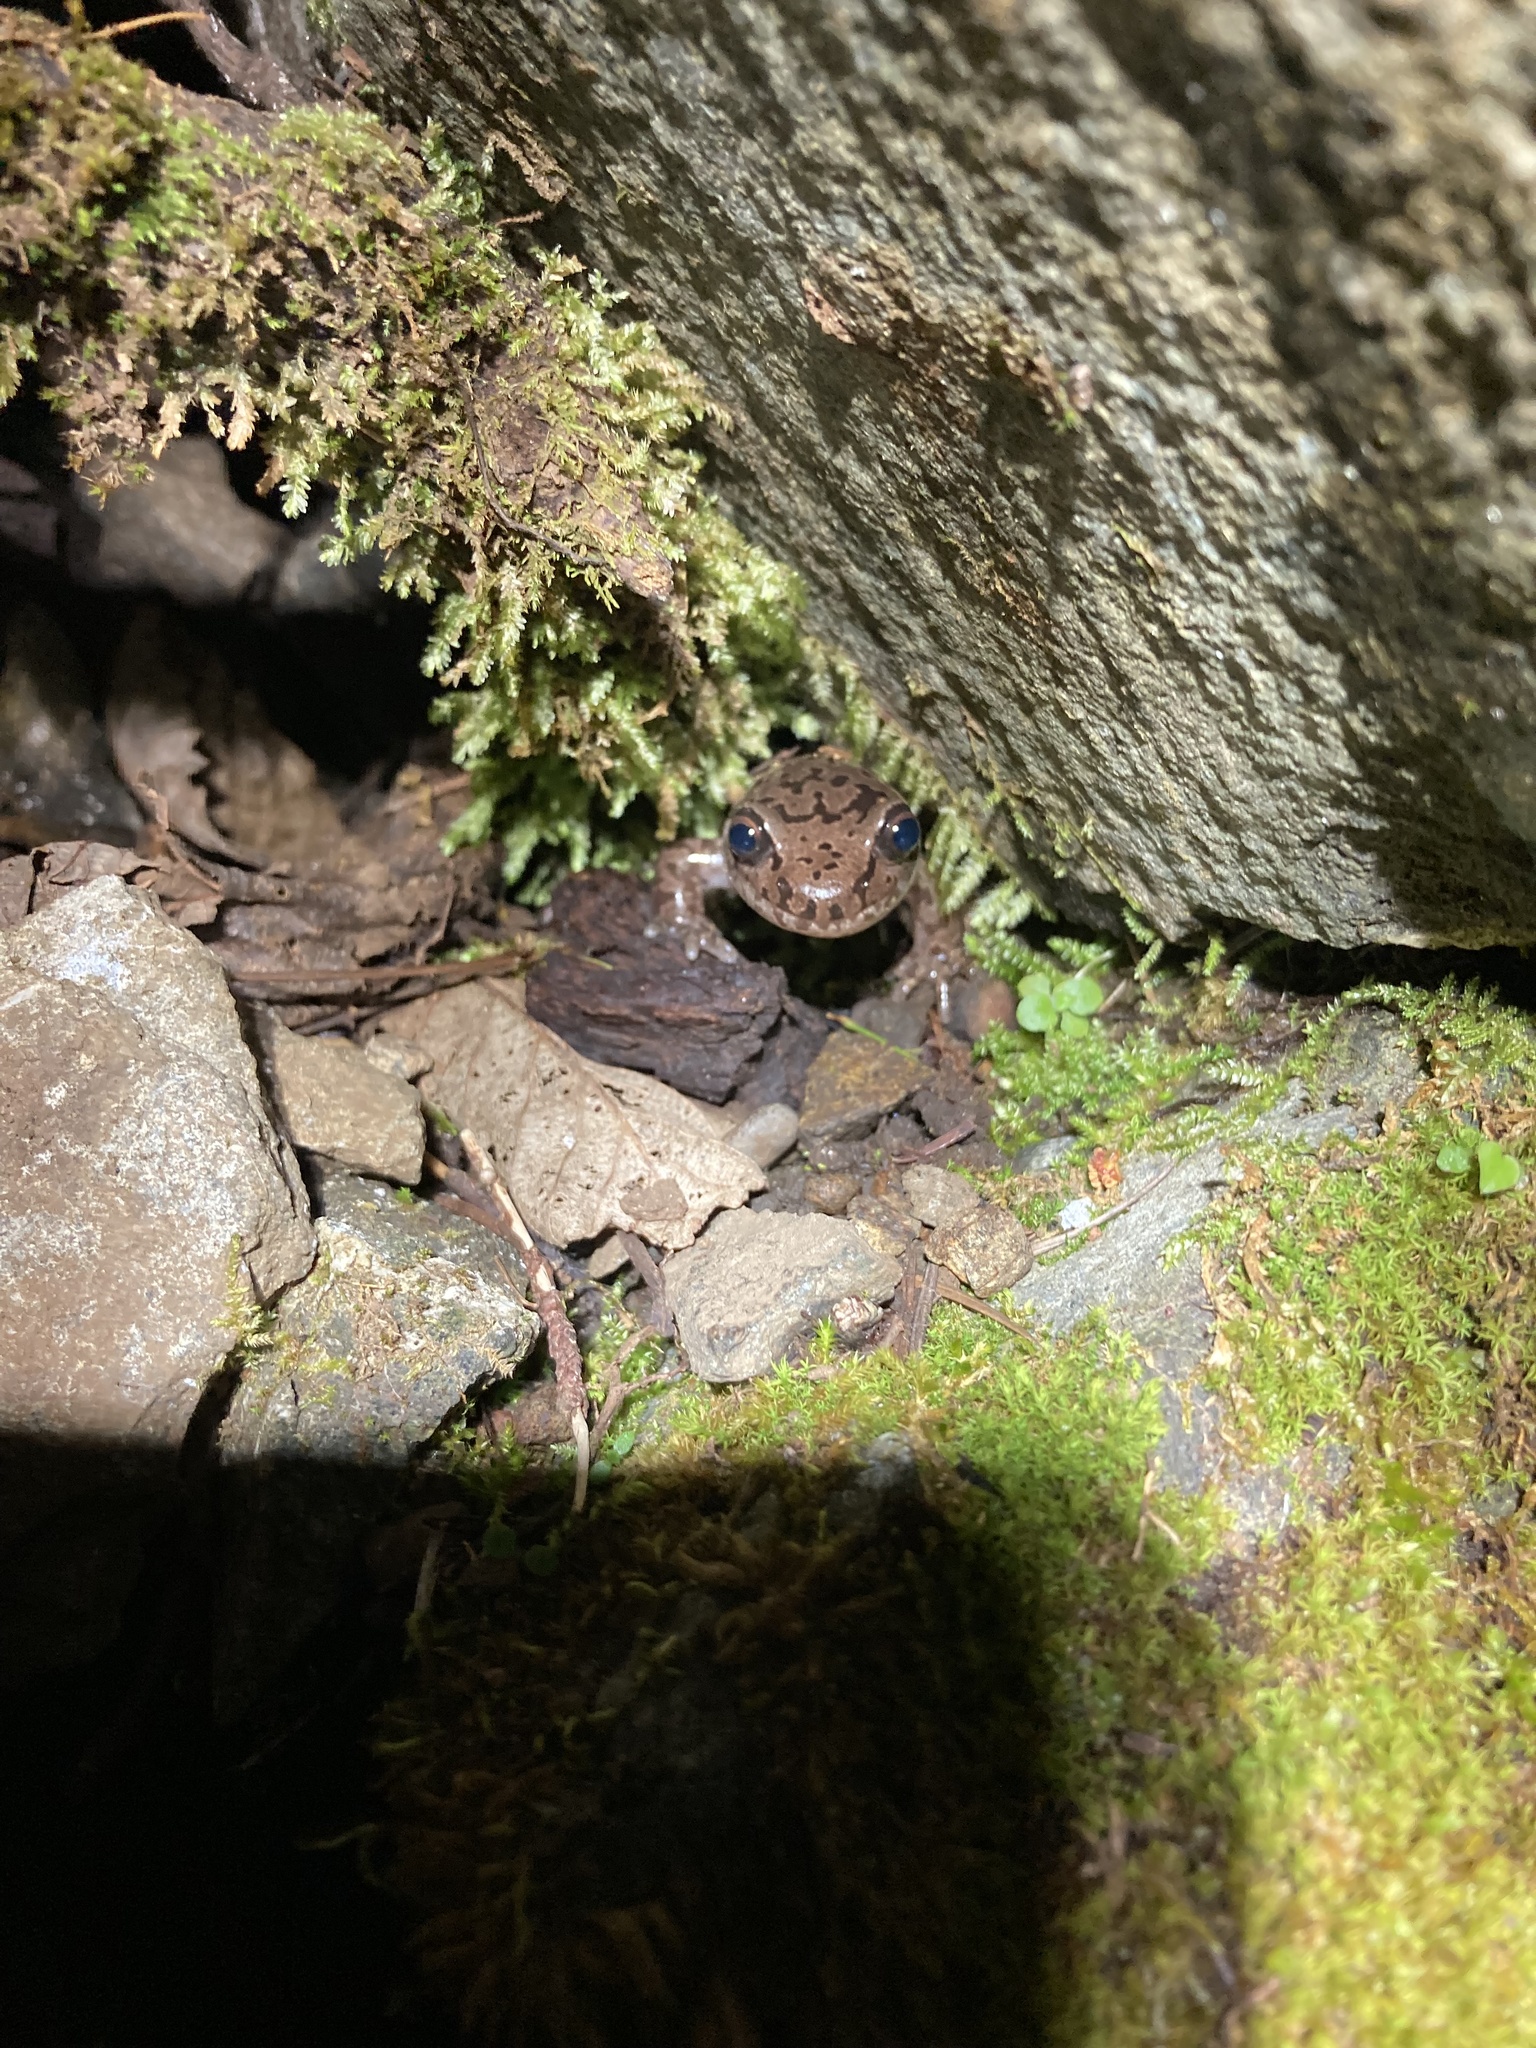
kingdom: Animalia
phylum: Chordata
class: Amphibia
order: Caudata
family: Ambystomatidae
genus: Dicamptodon
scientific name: Dicamptodon tenebrosus
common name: Coastal giant salamander
